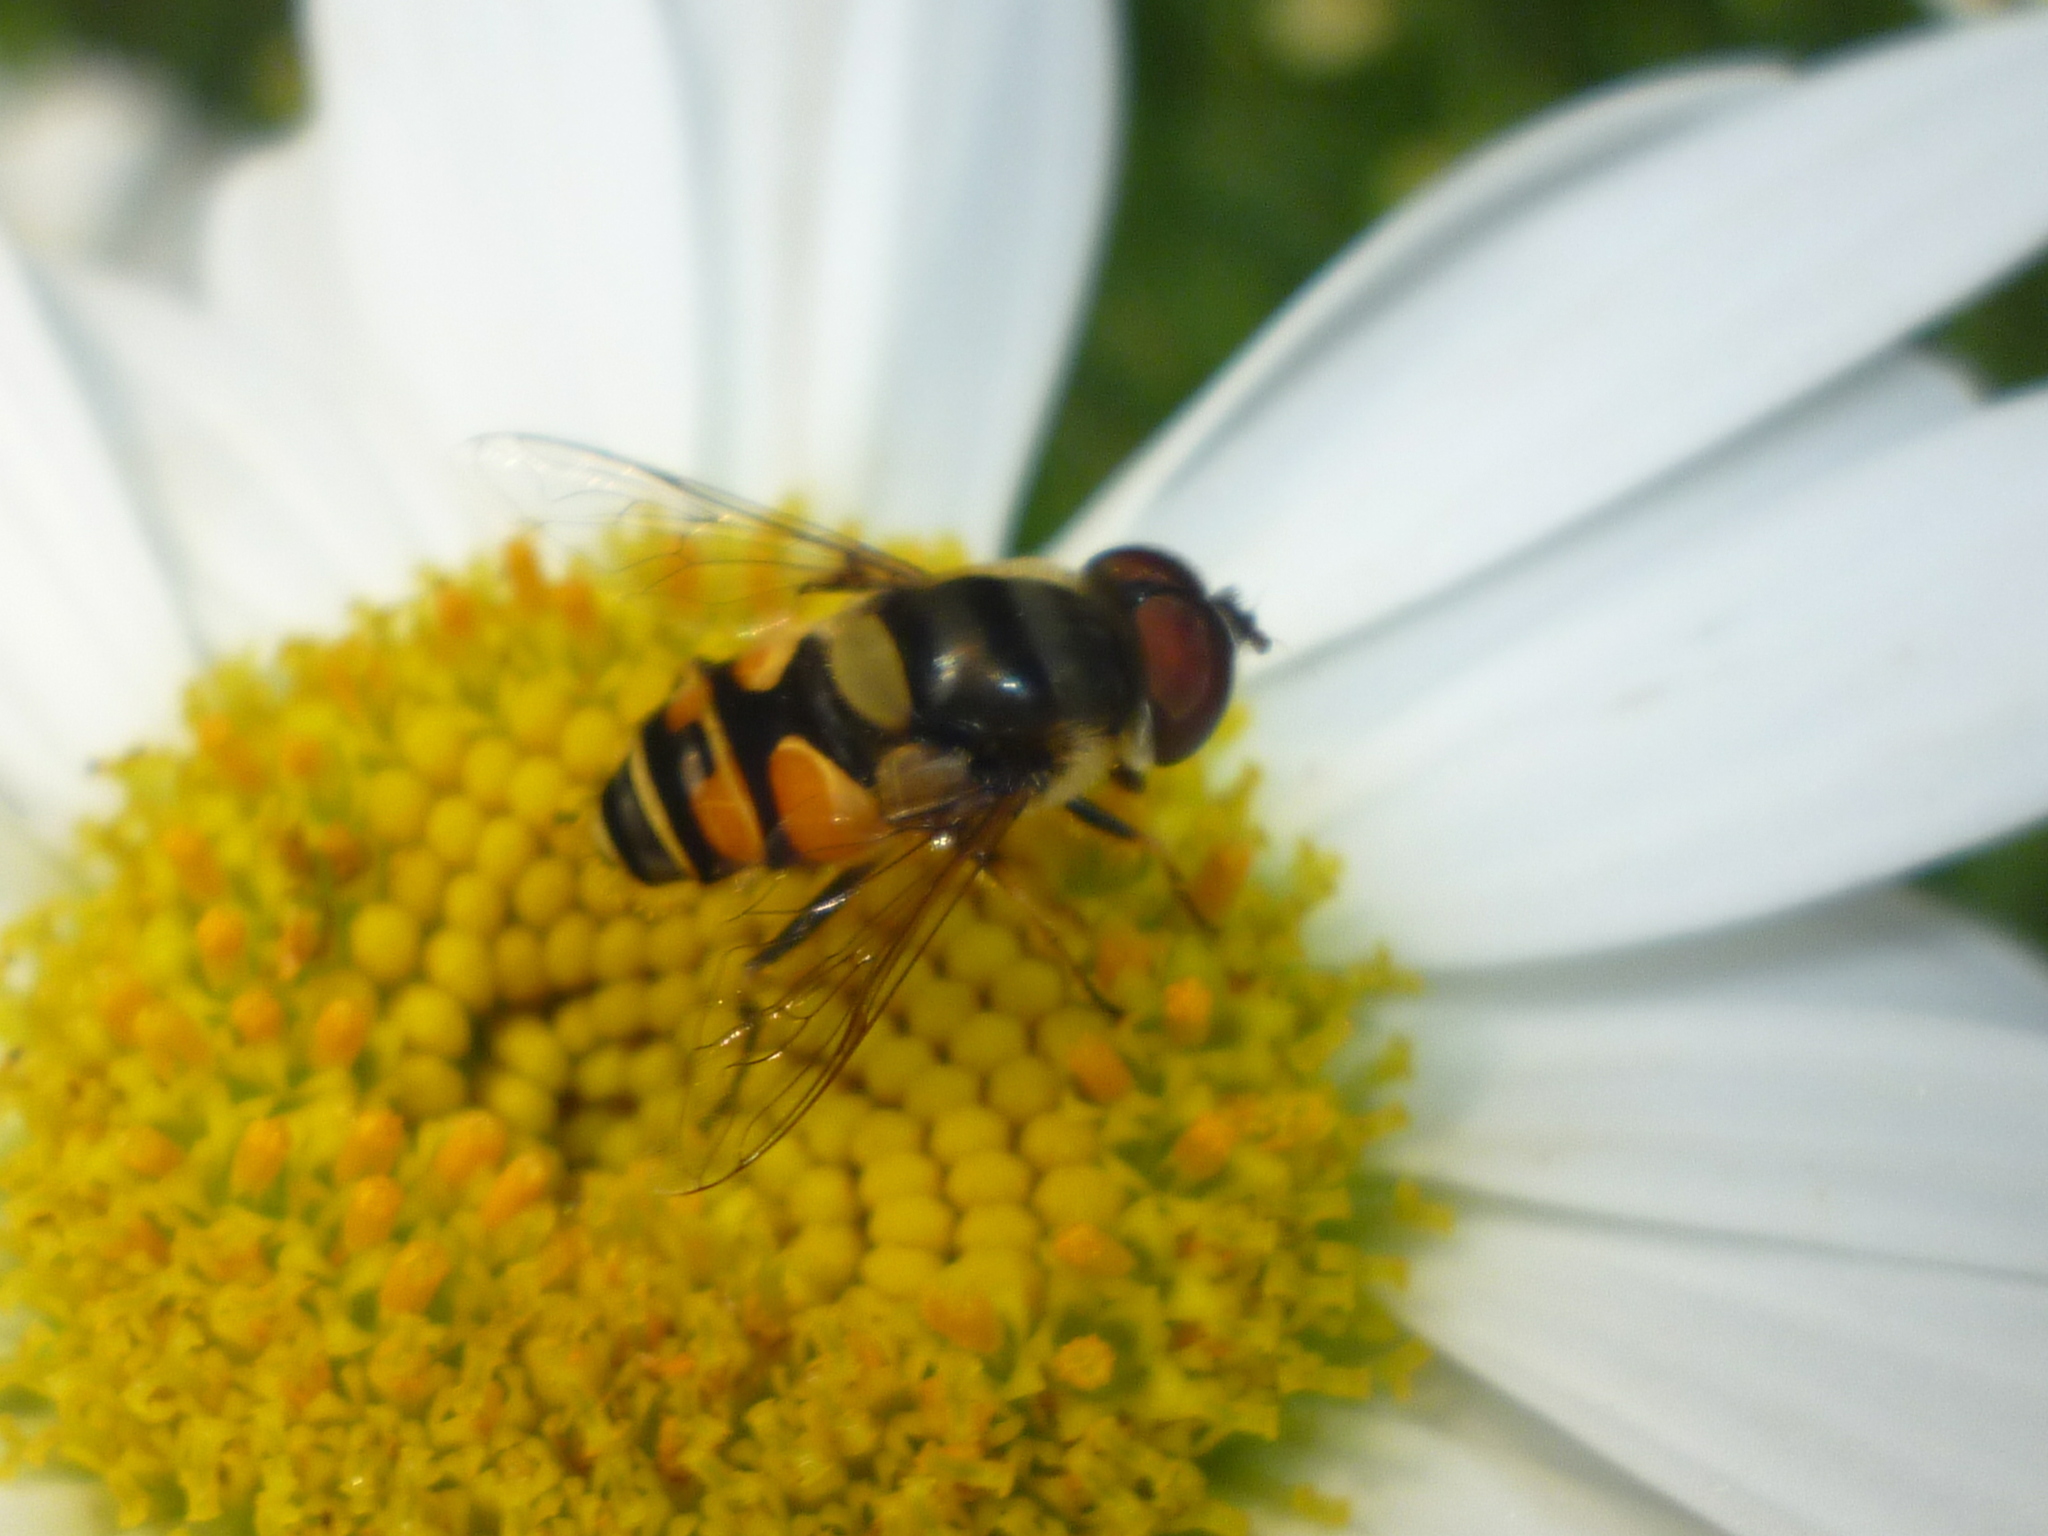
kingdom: Animalia
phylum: Arthropoda
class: Insecta
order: Diptera
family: Syrphidae
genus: Eristalis
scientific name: Eristalis transversa
